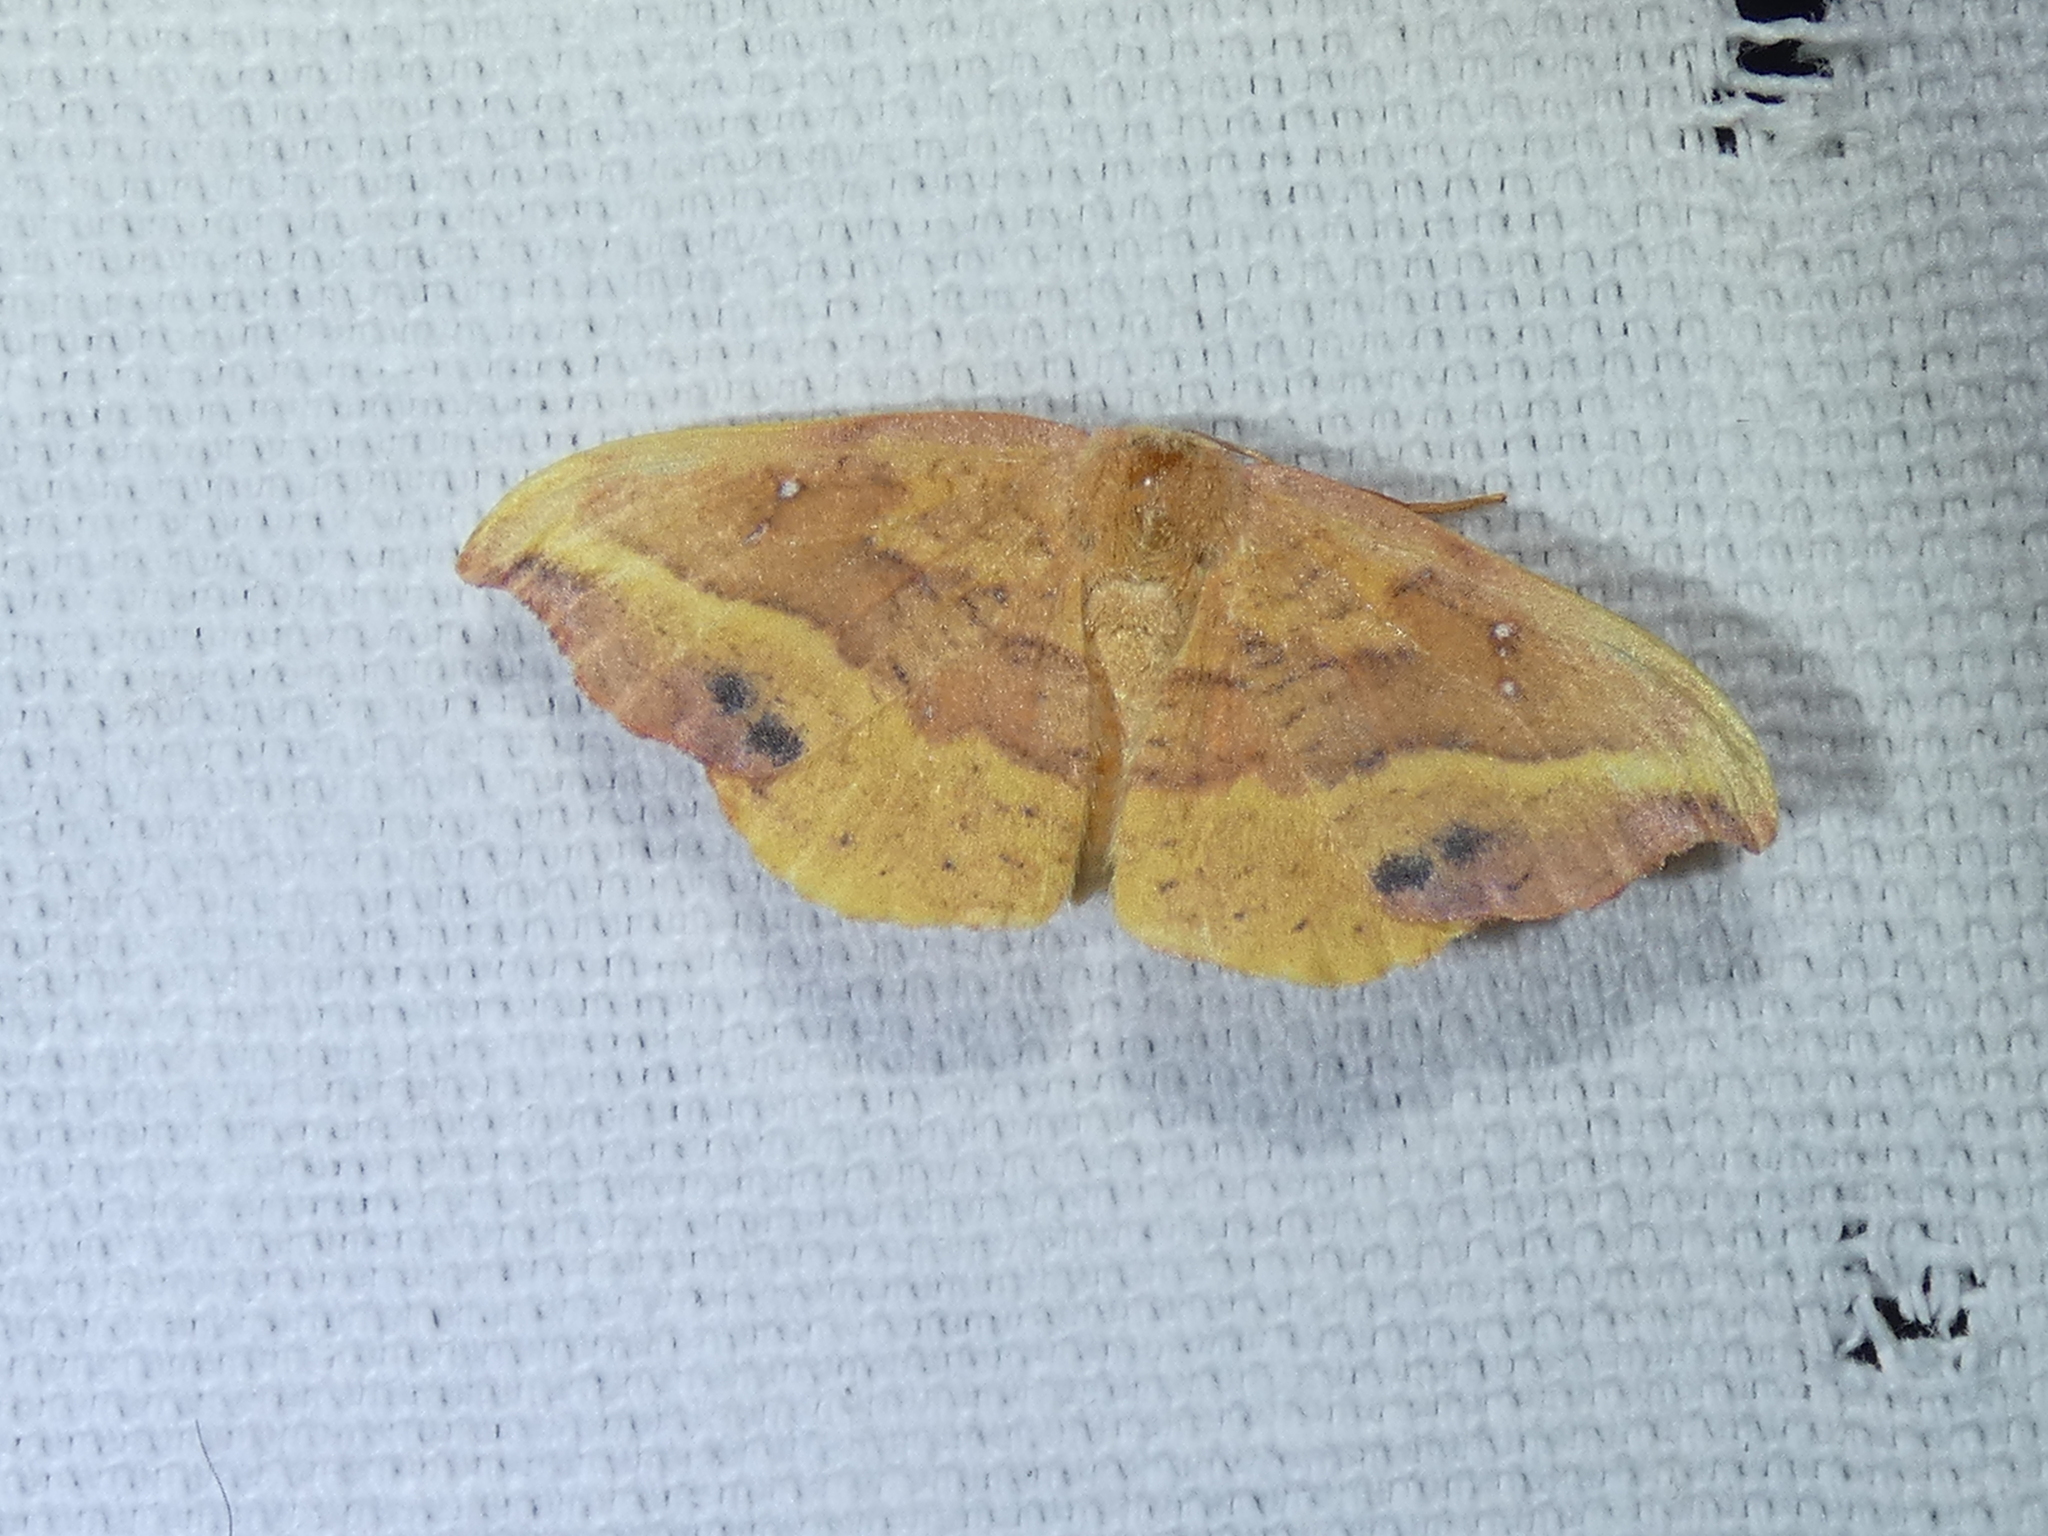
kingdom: Animalia
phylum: Arthropoda
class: Insecta
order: Lepidoptera
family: Drepanidae
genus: Oreta
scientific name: Oreta rosea
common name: Rose hooktip
